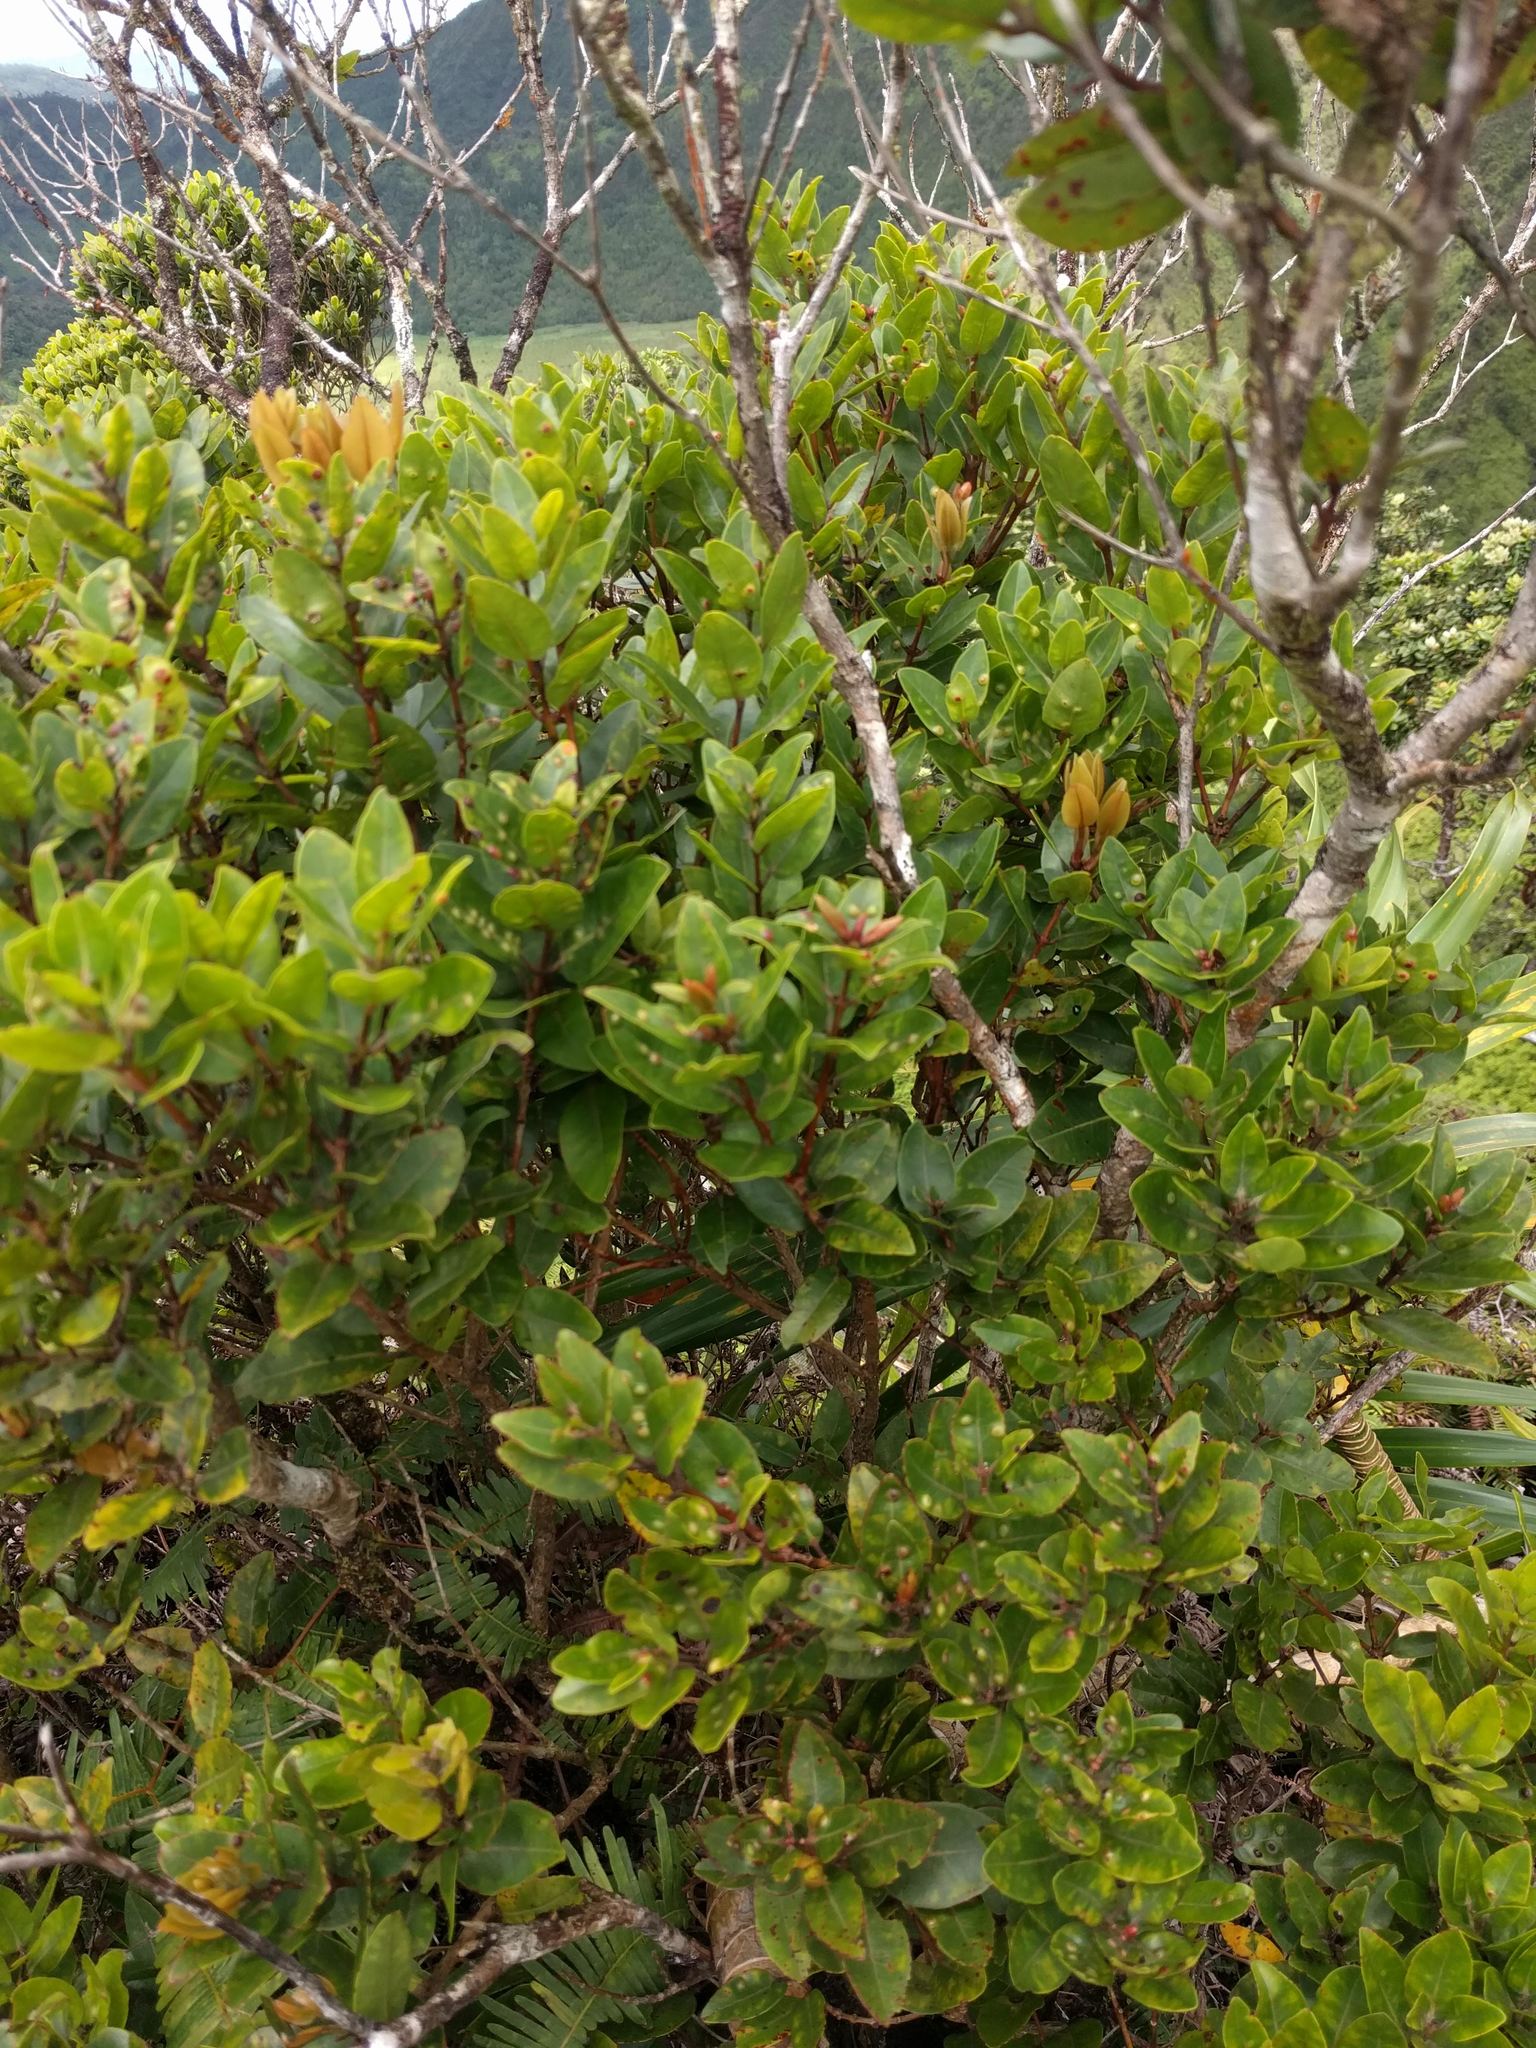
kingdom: Plantae
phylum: Tracheophyta
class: Magnoliopsida
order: Myrtales
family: Myrtaceae
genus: Metrosideros
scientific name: Metrosideros polymorpha
